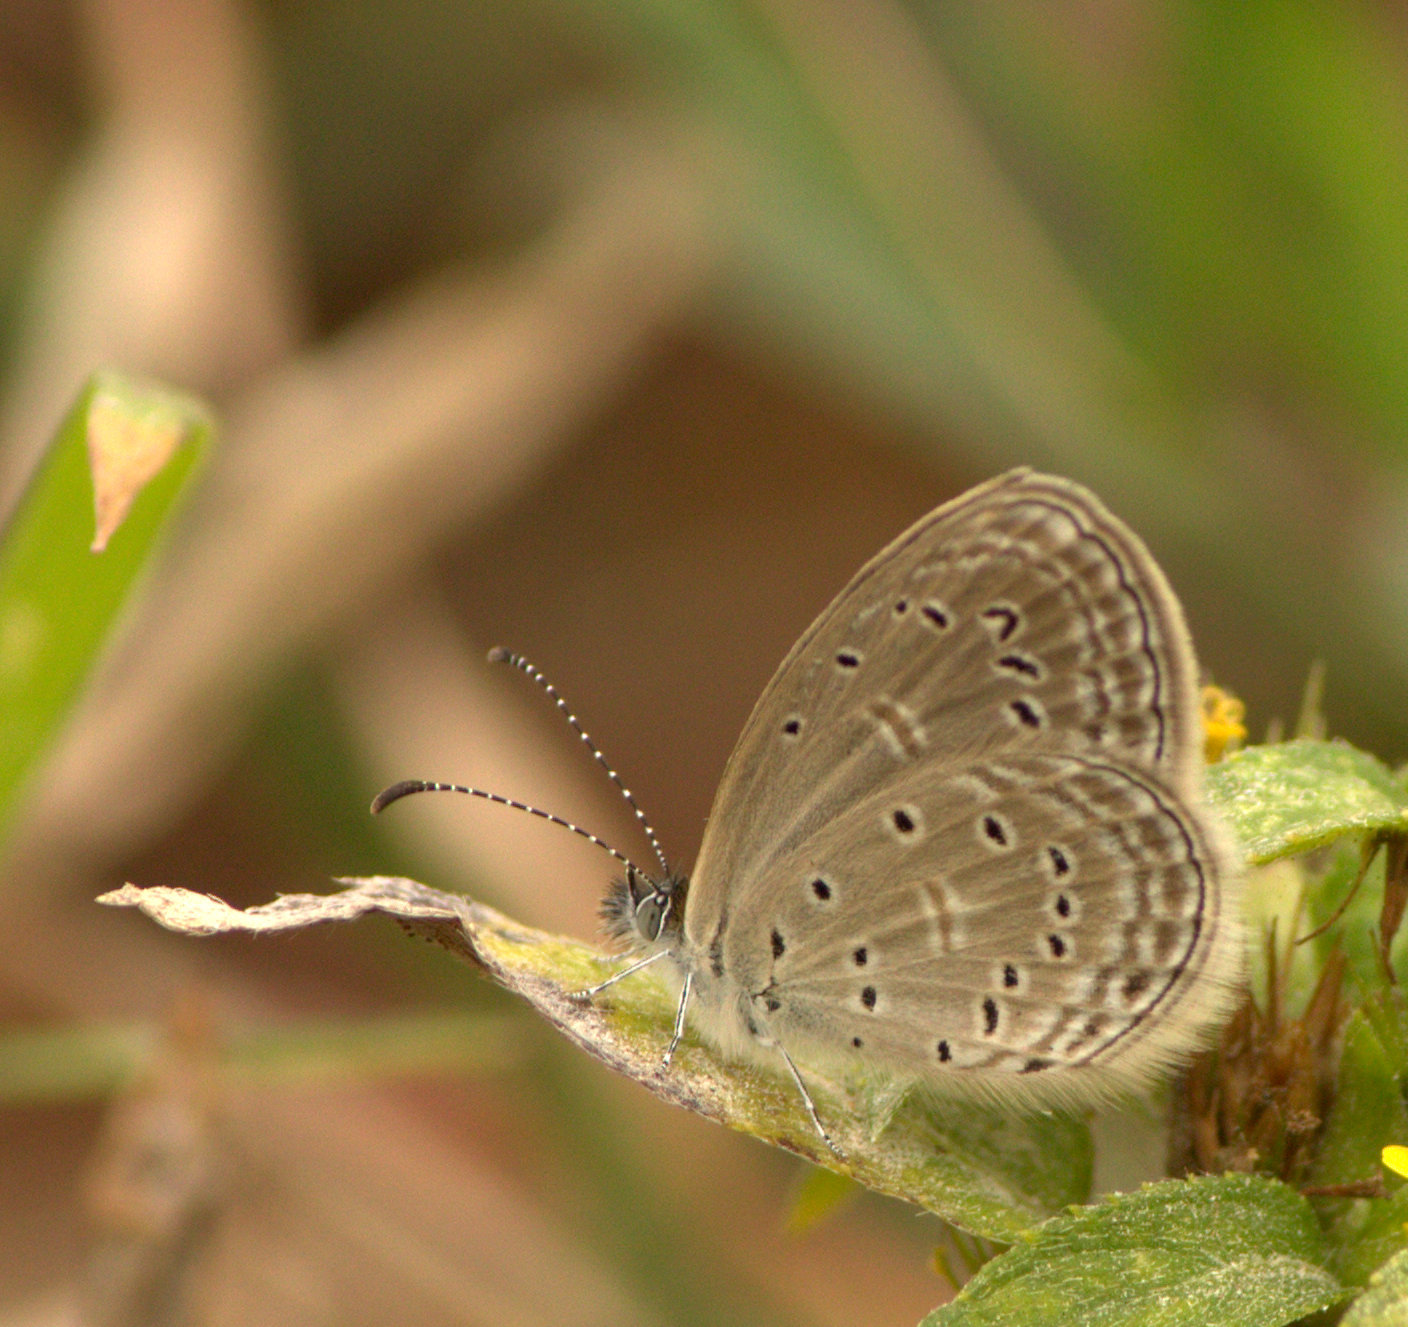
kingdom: Animalia
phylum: Arthropoda
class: Insecta
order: Lepidoptera
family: Lycaenidae
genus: Zizula
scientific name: Zizula hylax
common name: Gaika blue
